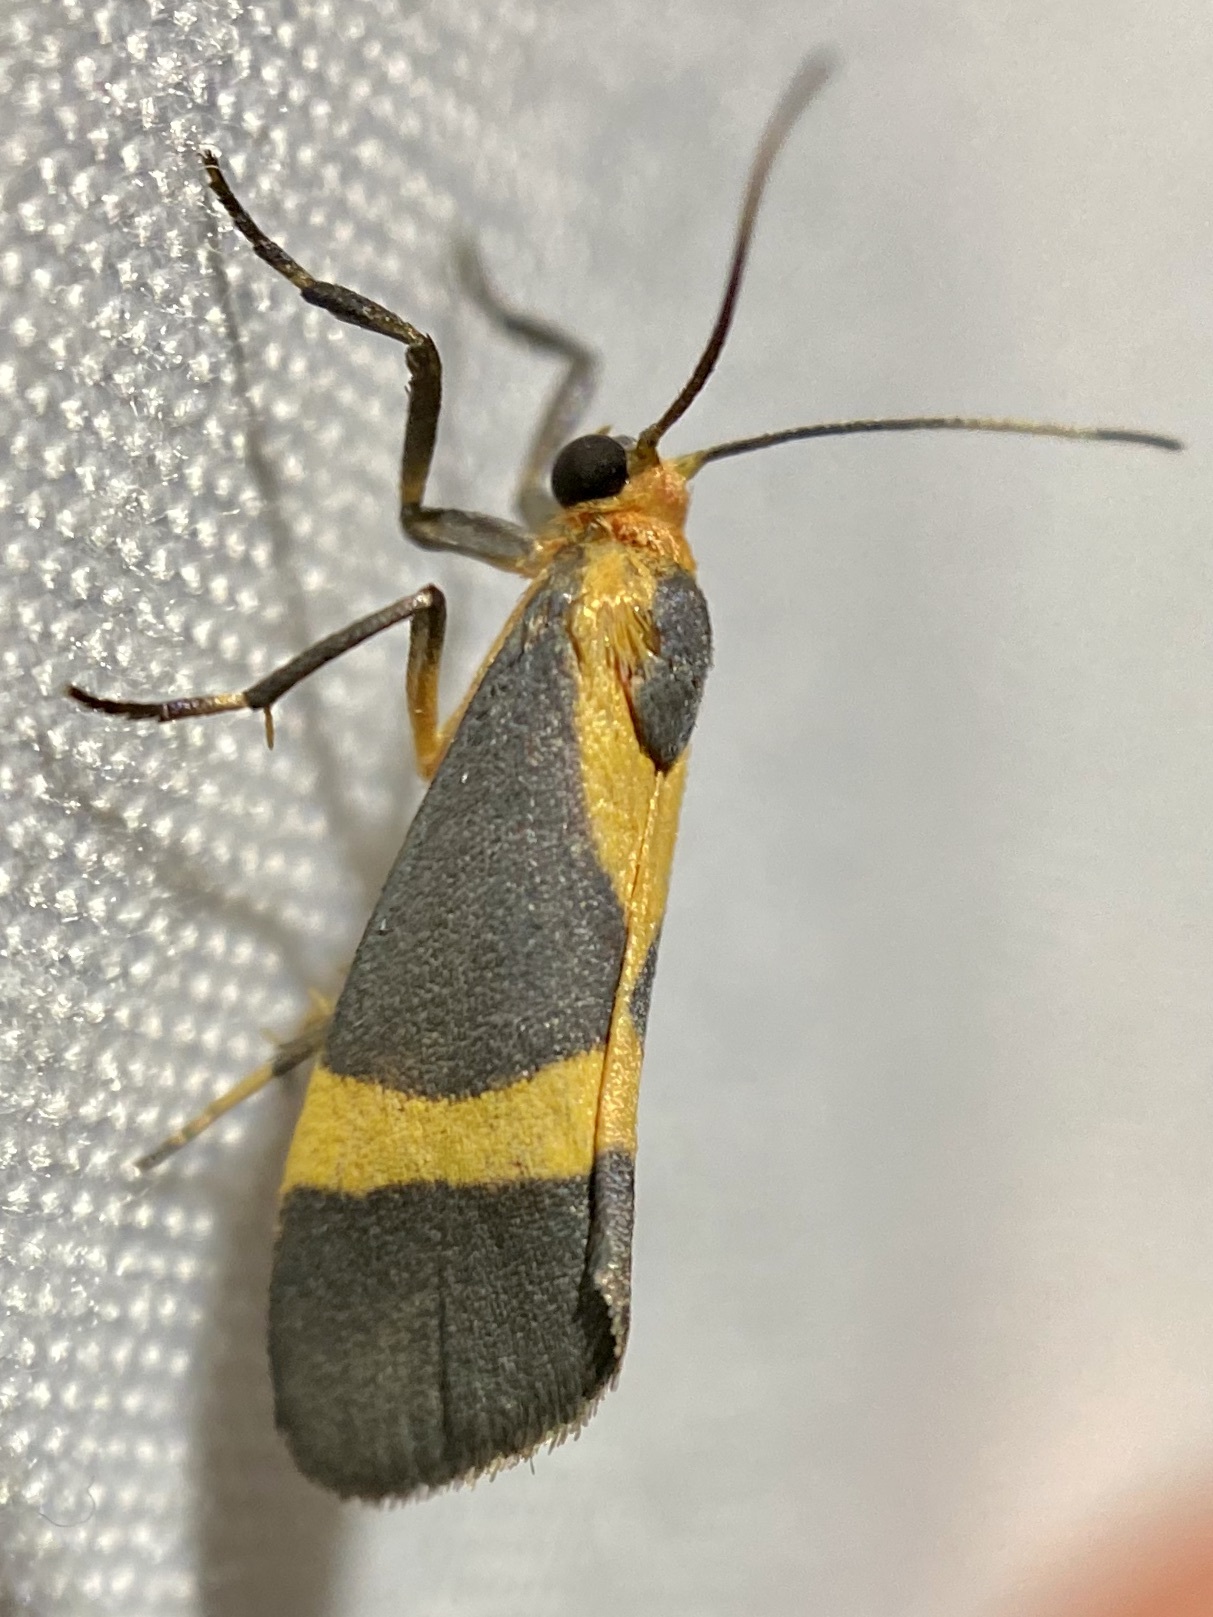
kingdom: Animalia
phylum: Arthropoda
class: Insecta
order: Lepidoptera
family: Erebidae
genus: Cisthene
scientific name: Cisthene tenuifascia
